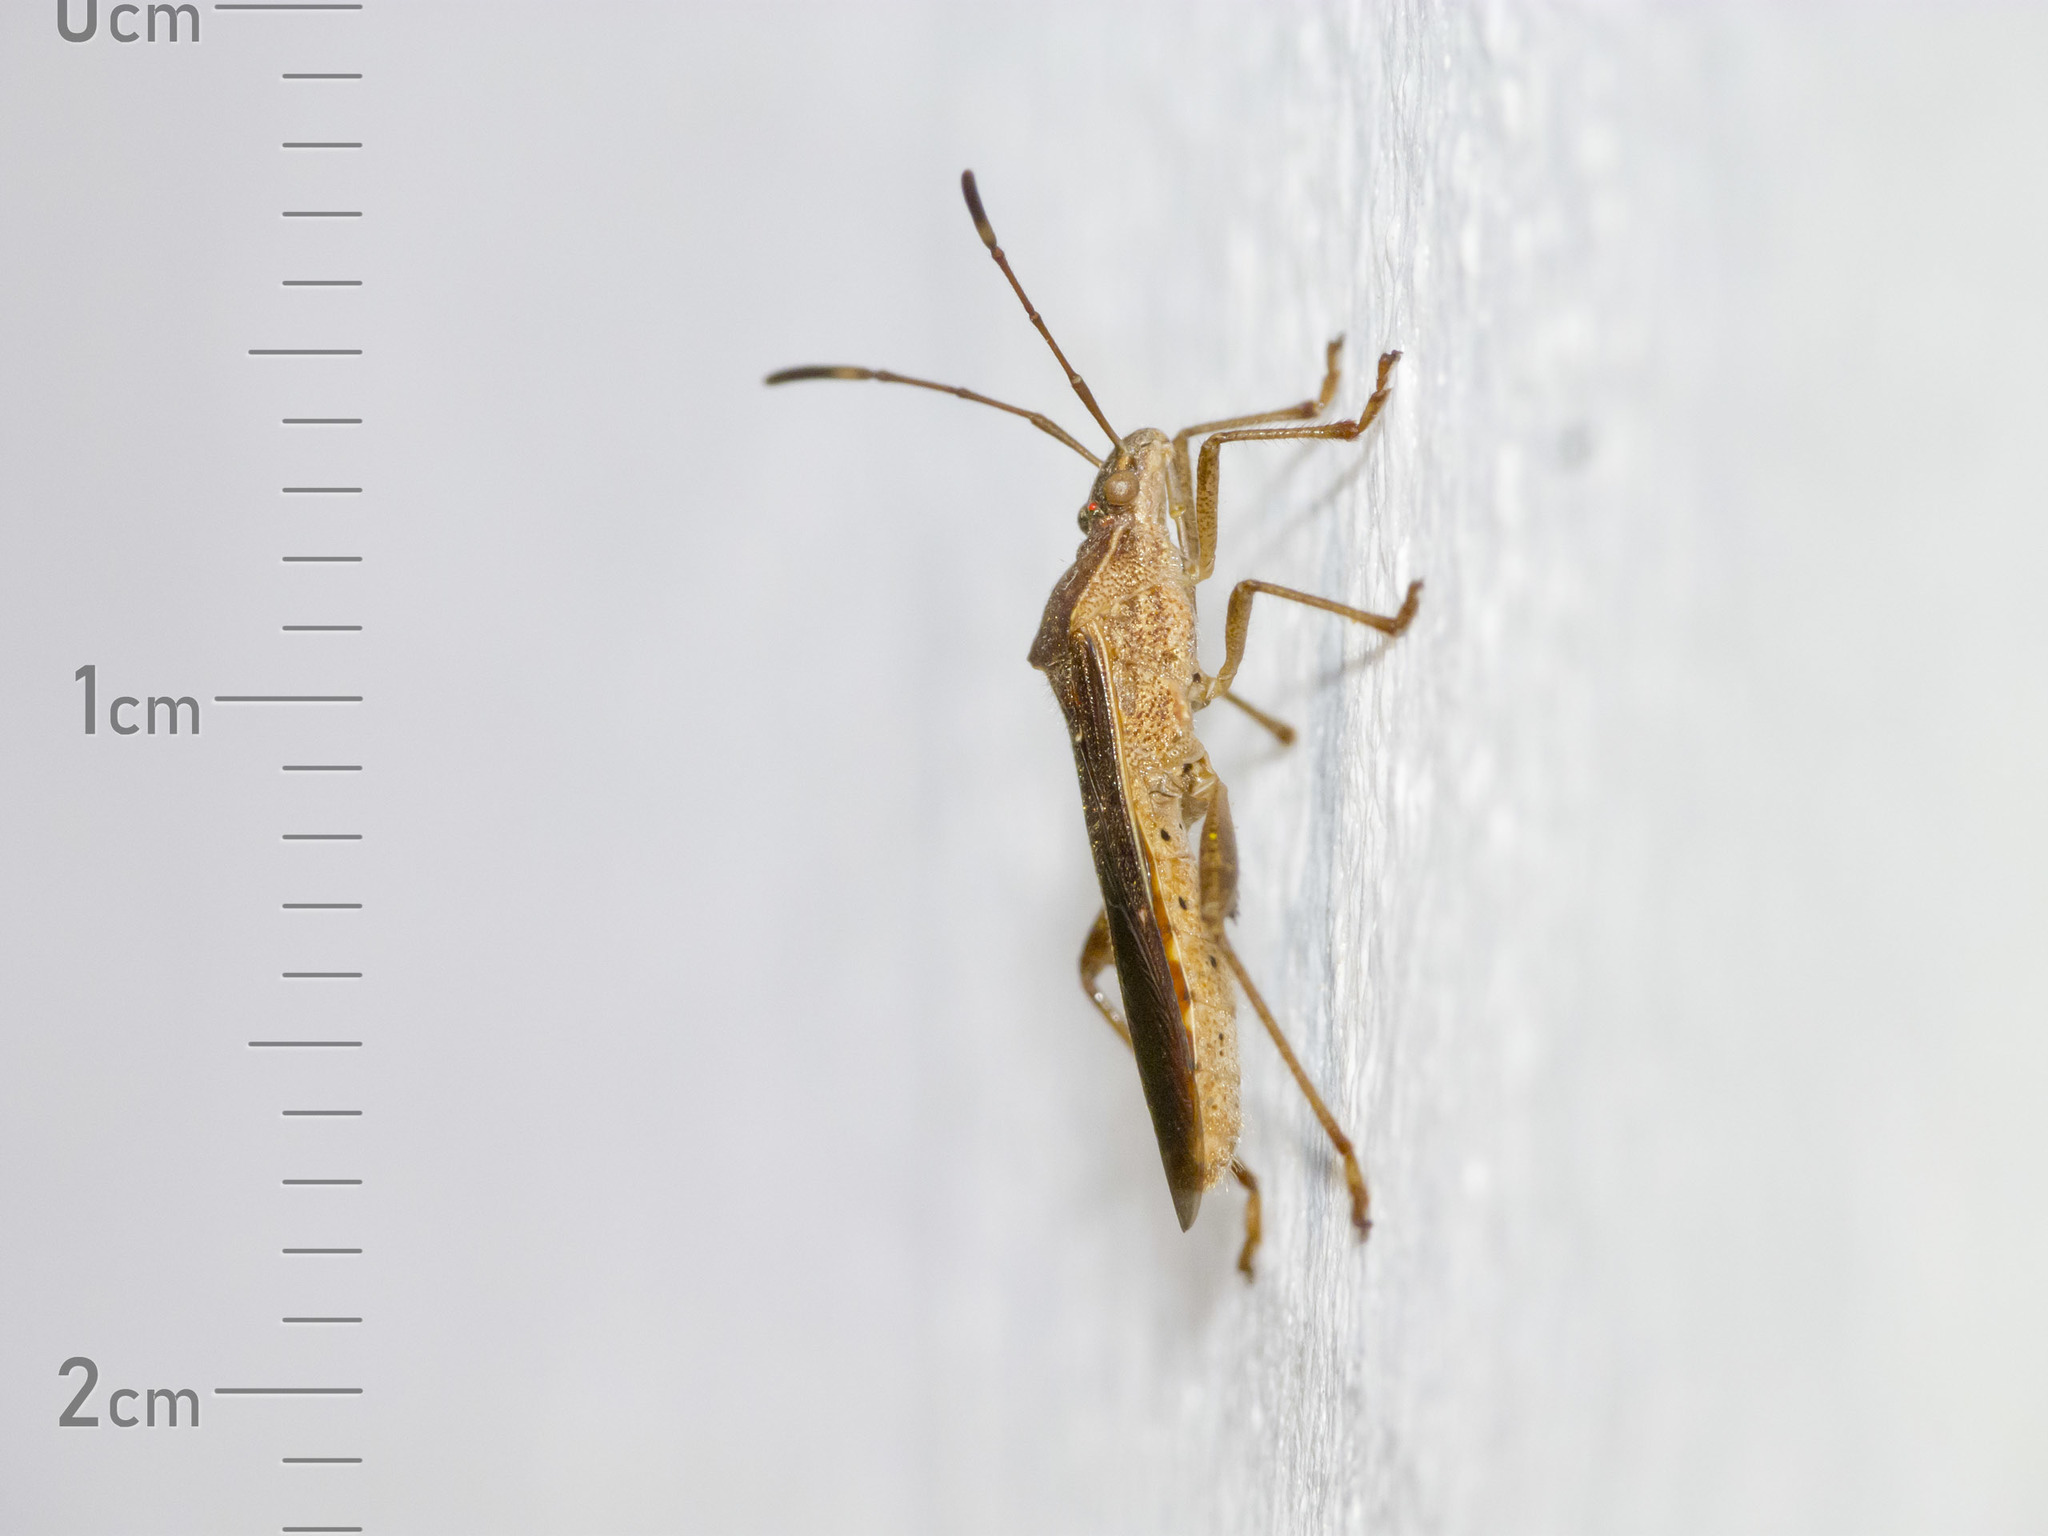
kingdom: Animalia
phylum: Arthropoda
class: Insecta
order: Hemiptera
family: Alydidae
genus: Burtinus
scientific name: Burtinus notatipennis
